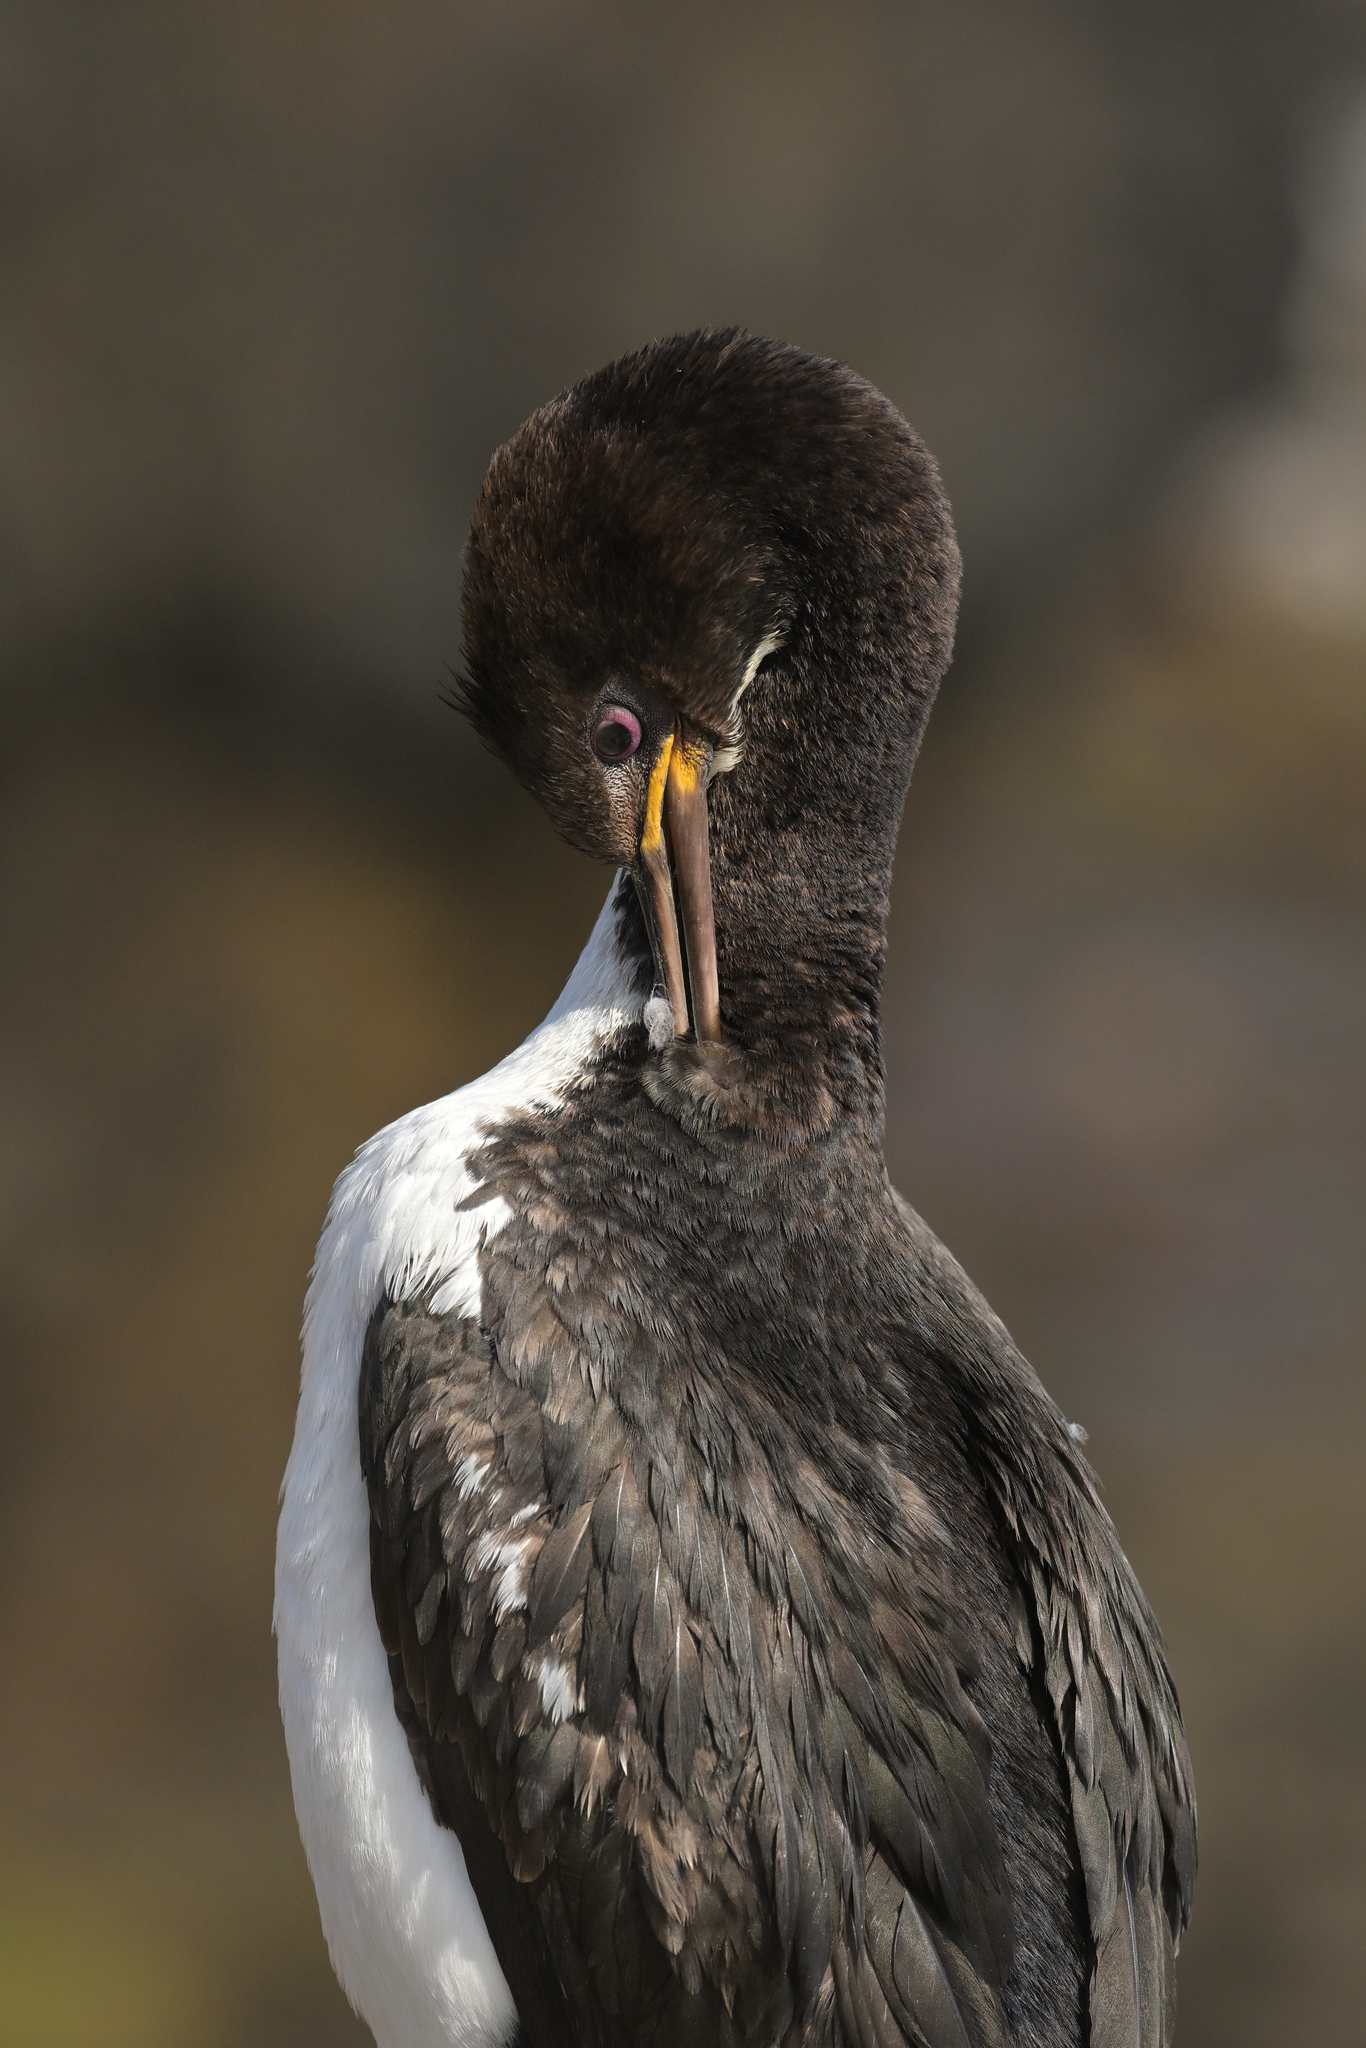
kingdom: Animalia
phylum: Chordata
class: Aves
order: Suliformes
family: Phalacrocoracidae
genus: Leucocarbo
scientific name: Leucocarbo colensoi
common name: Auckland shag
